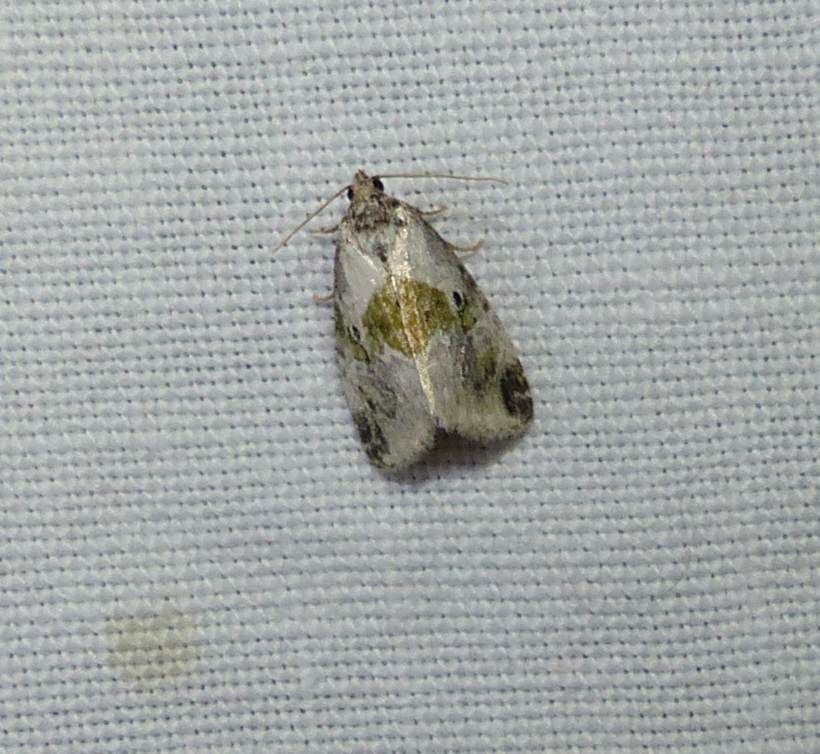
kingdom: Animalia
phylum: Arthropoda
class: Insecta
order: Lepidoptera
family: Noctuidae
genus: Maliattha
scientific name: Maliattha synochitis
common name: Black-dotted glyph
